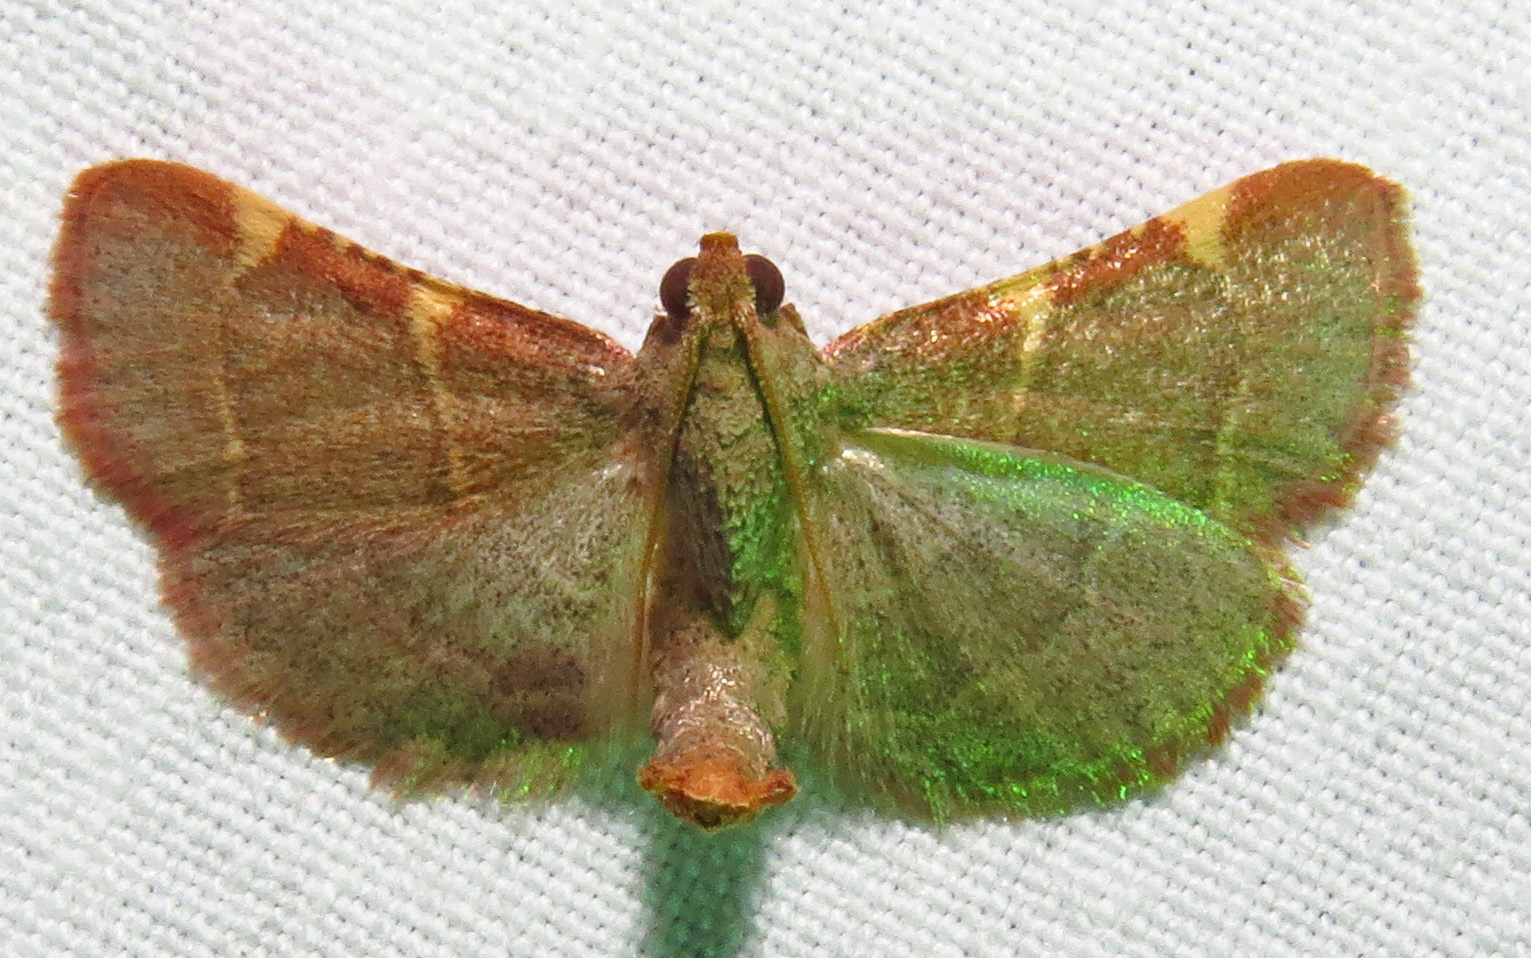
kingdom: Animalia
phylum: Arthropoda
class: Insecta
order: Lepidoptera
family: Pyralidae
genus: Hypsopygia
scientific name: Hypsopygia binodulalis
